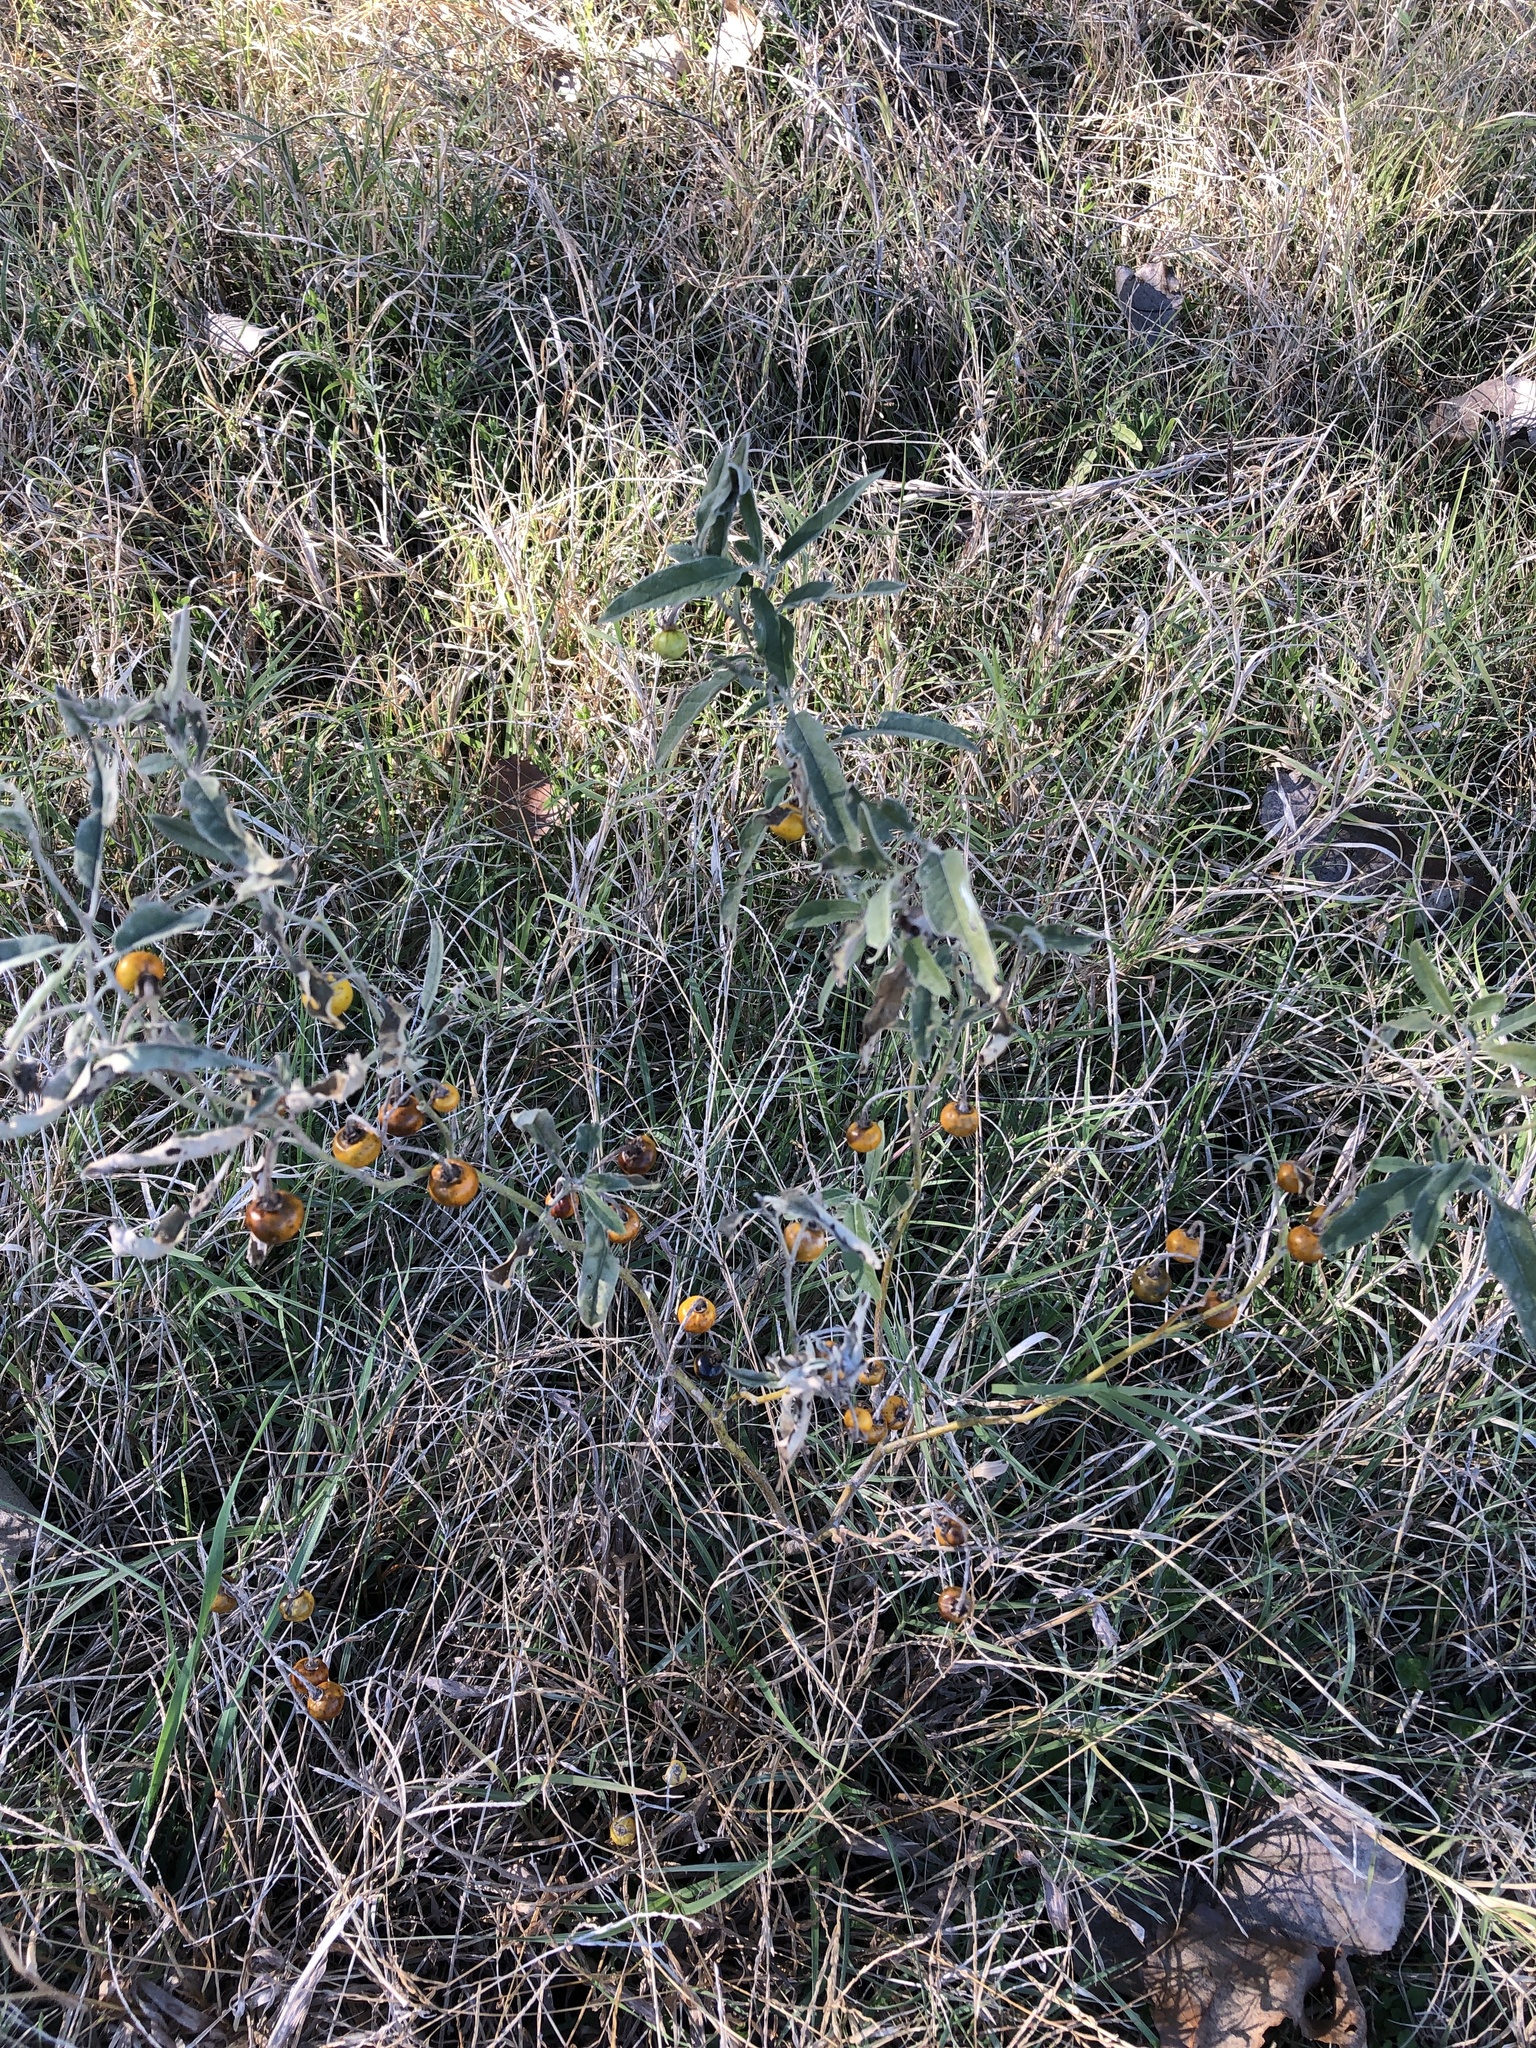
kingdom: Plantae
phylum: Tracheophyta
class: Magnoliopsida
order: Solanales
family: Solanaceae
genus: Solanum
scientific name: Solanum elaeagnifolium
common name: Silverleaf nightshade
